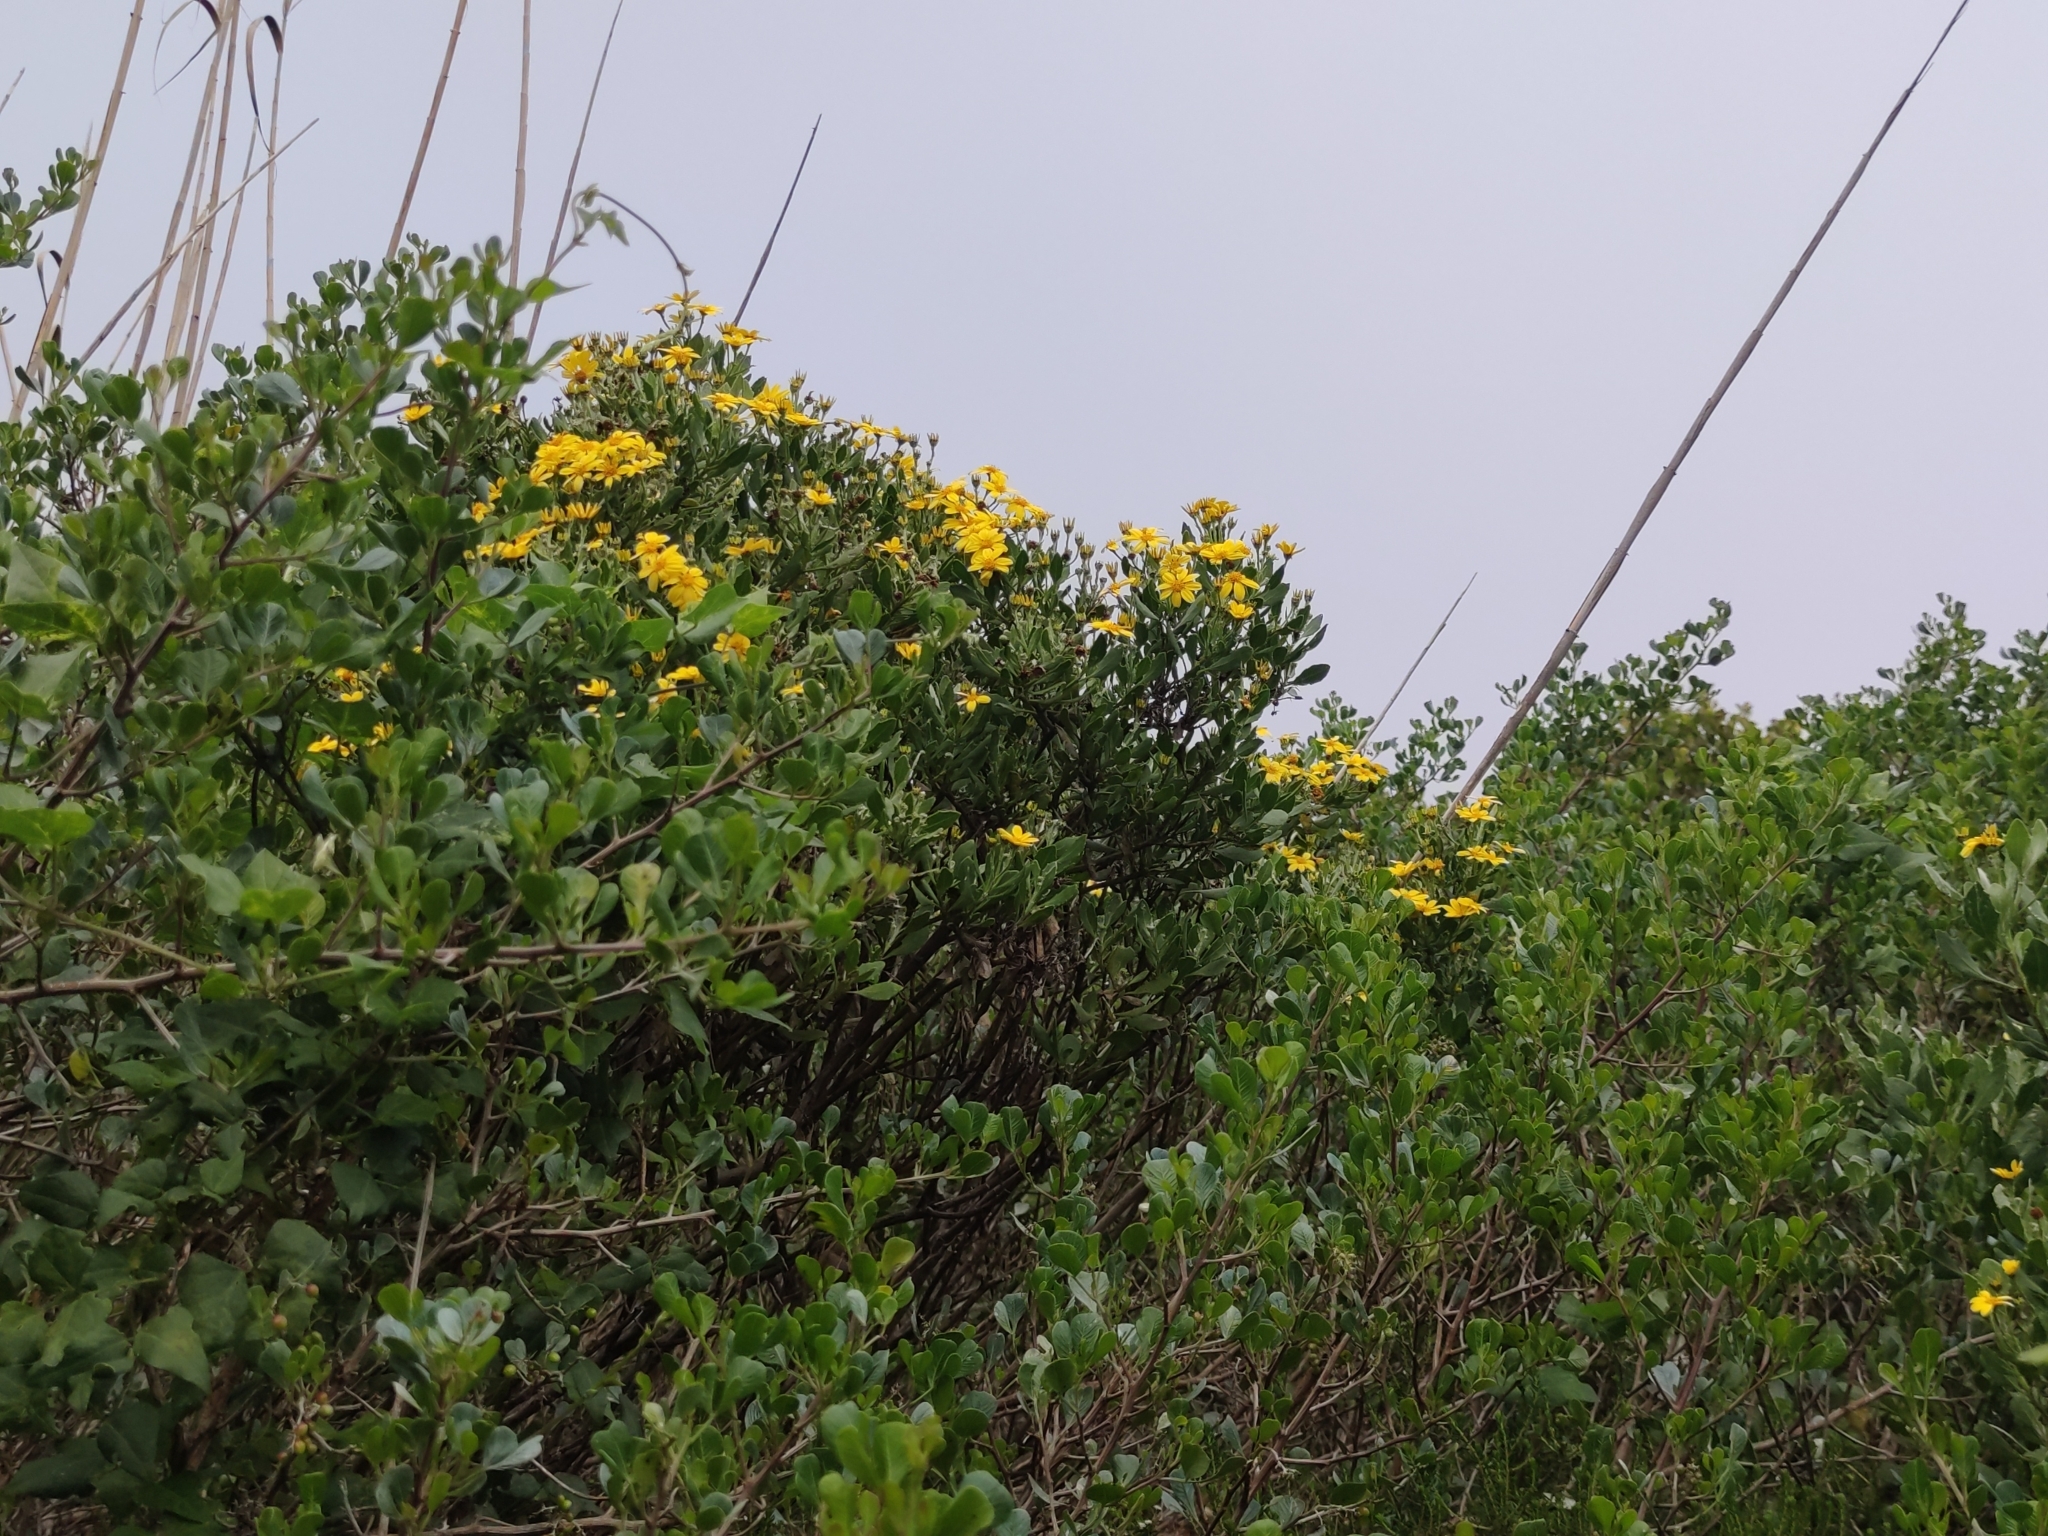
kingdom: Plantae
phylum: Tracheophyta
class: Magnoliopsida
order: Asterales
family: Asteraceae
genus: Osteospermum
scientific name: Osteospermum moniliferum
